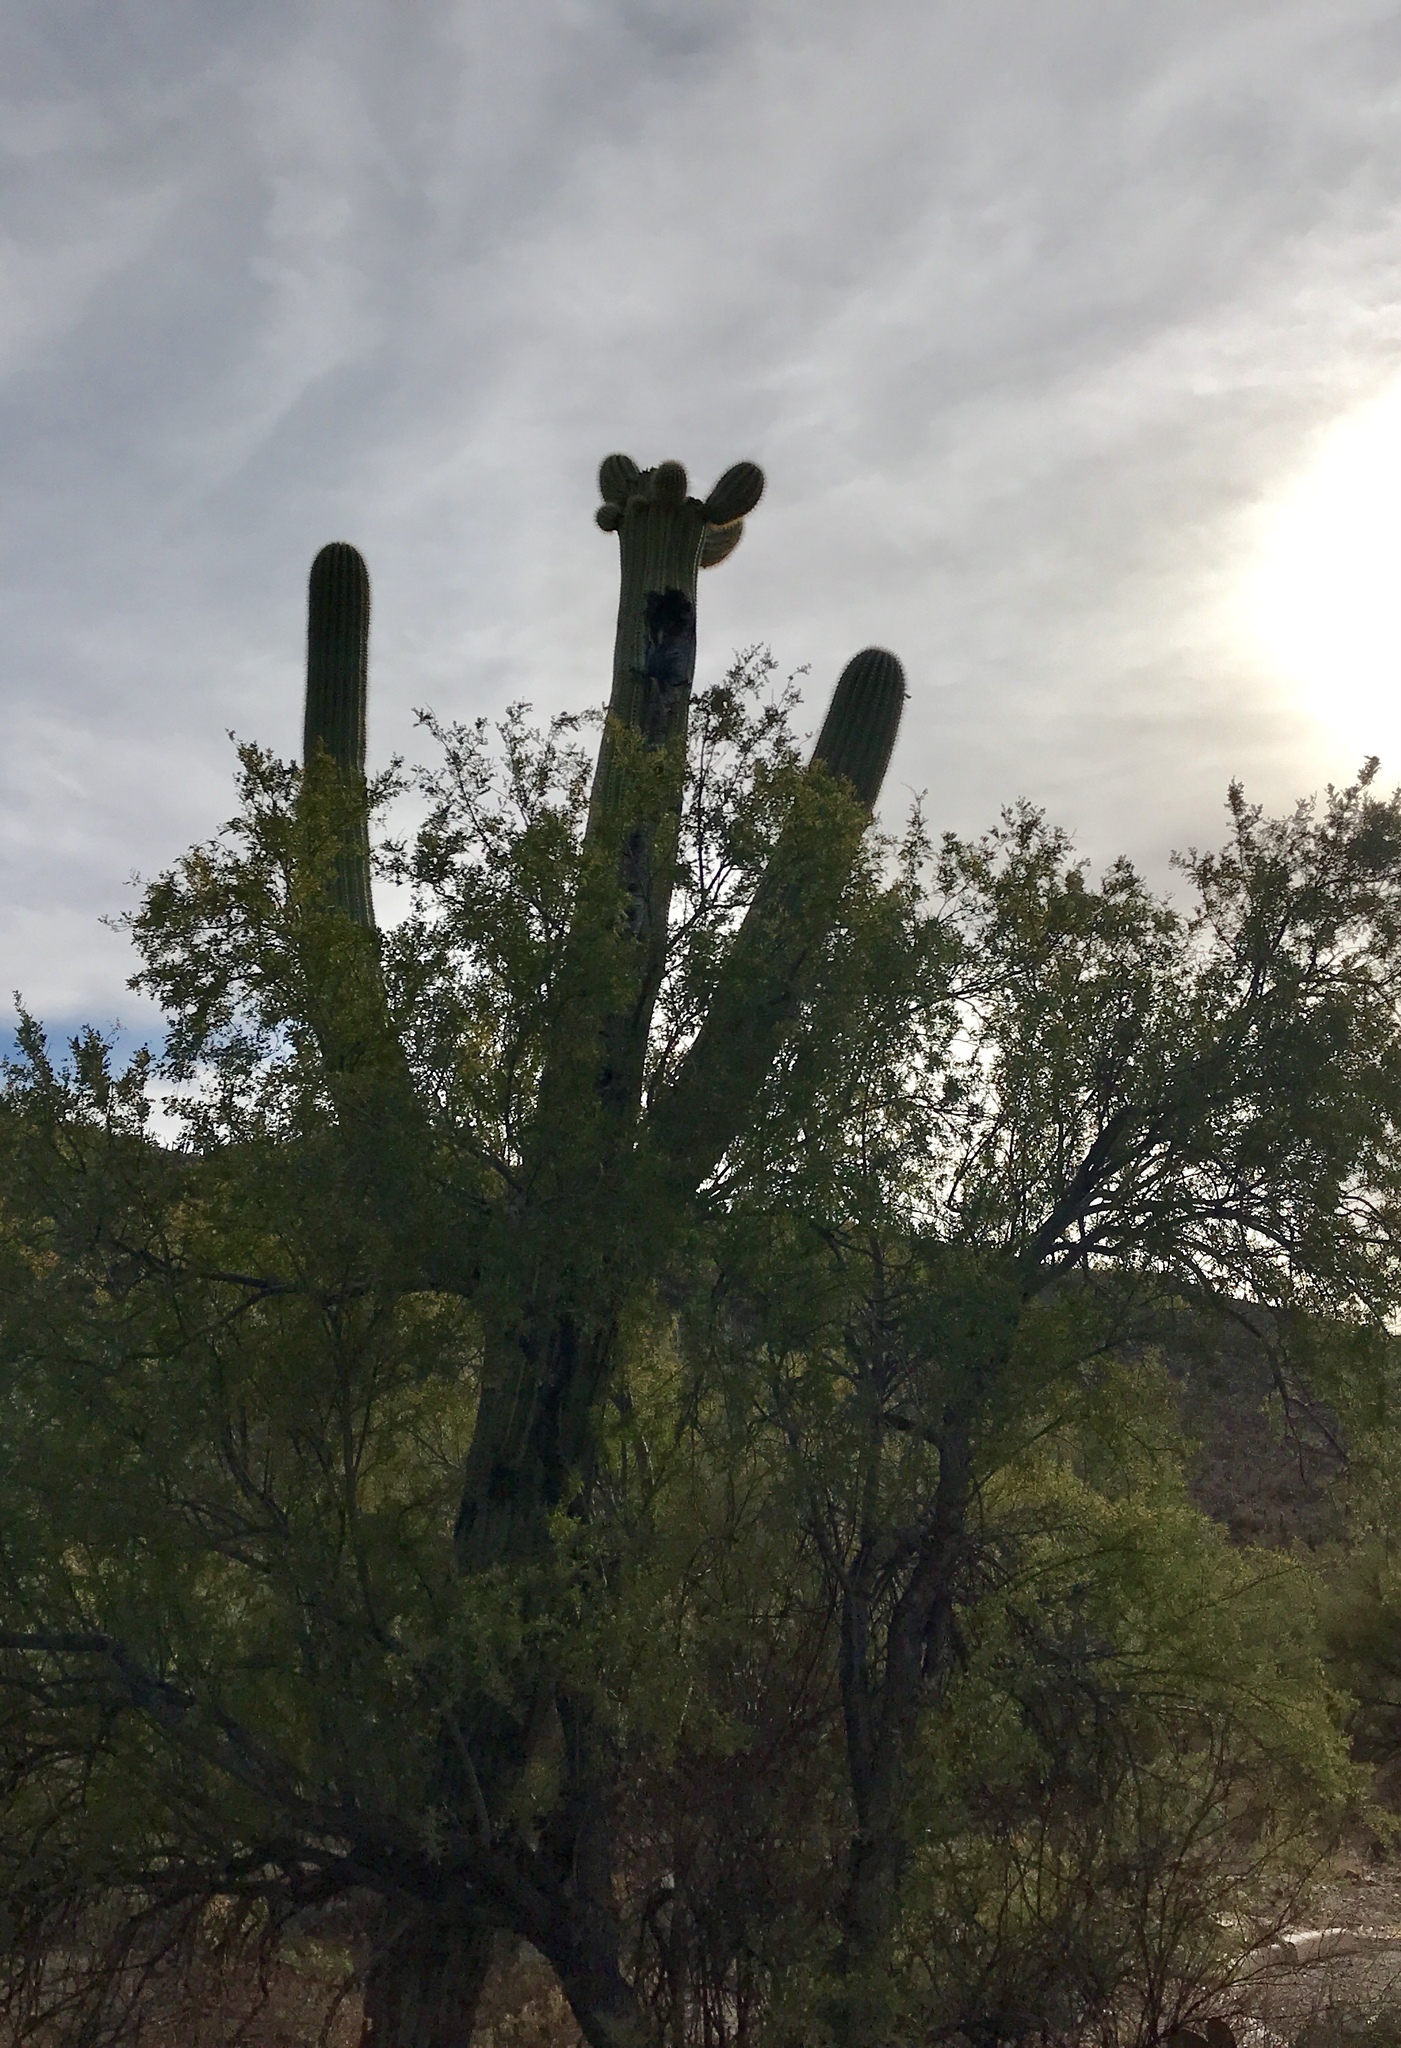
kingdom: Plantae
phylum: Tracheophyta
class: Magnoliopsida
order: Caryophyllales
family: Cactaceae
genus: Carnegiea
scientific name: Carnegiea gigantea
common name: Saguaro
